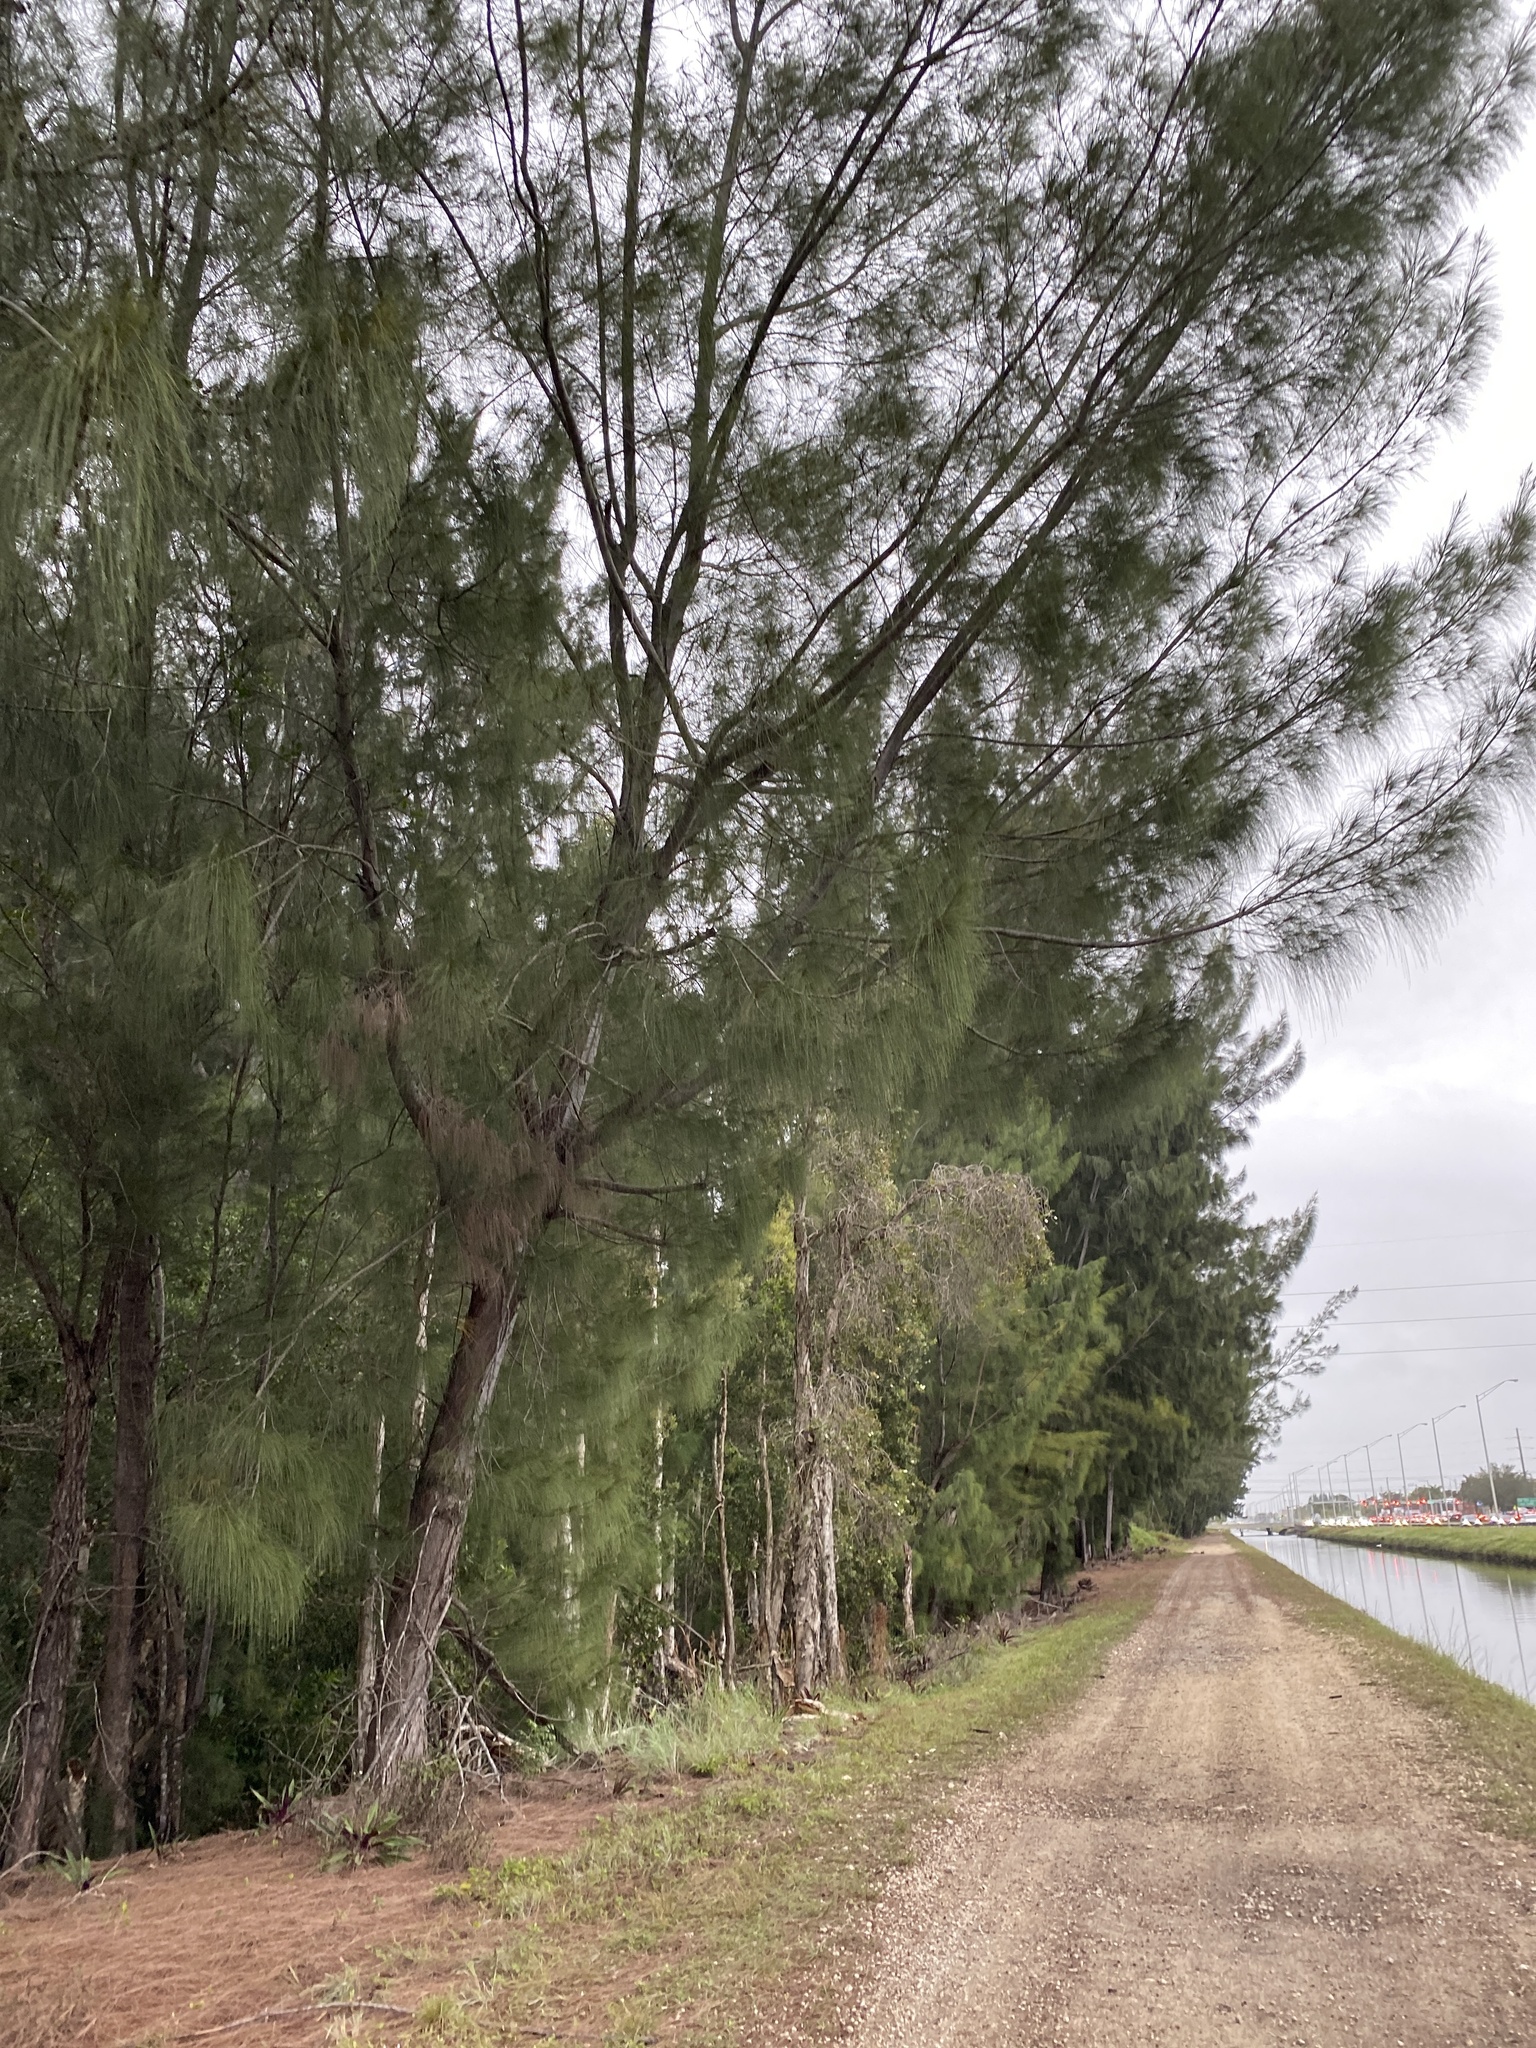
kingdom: Plantae
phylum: Tracheophyta
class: Magnoliopsida
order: Fagales
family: Casuarinaceae
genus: Casuarina
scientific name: Casuarina equisetifolia
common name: Beach sheoak
